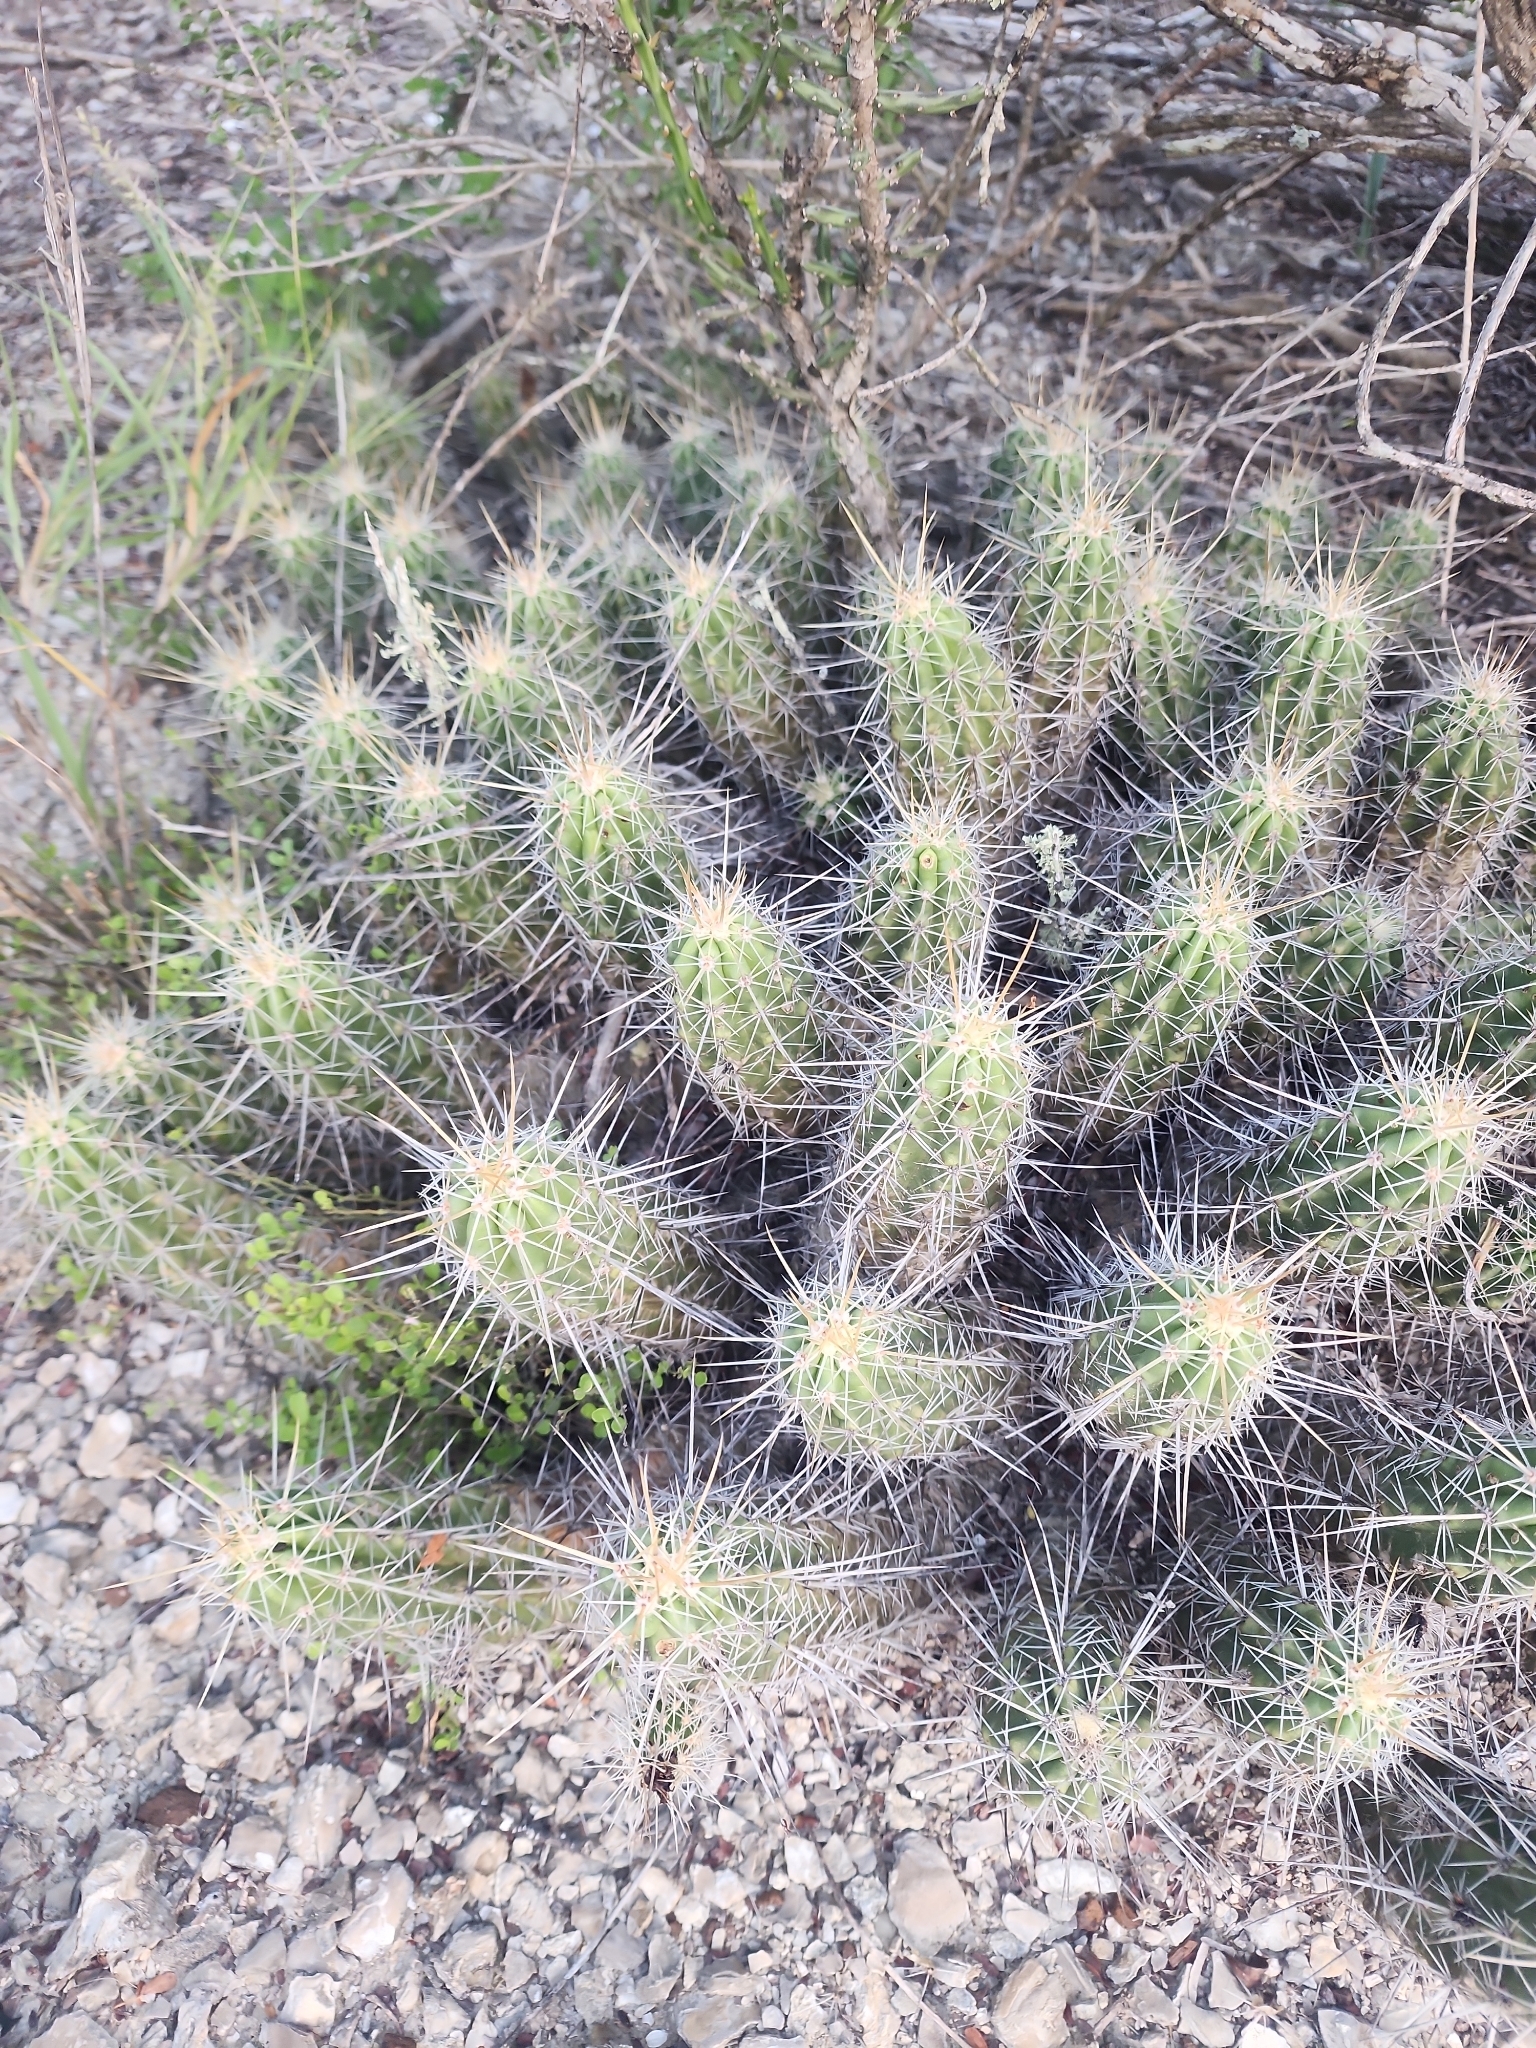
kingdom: Plantae
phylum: Tracheophyta
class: Magnoliopsida
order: Caryophyllales
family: Cactaceae
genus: Echinocereus
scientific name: Echinocereus enneacanthus
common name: Pitaya
